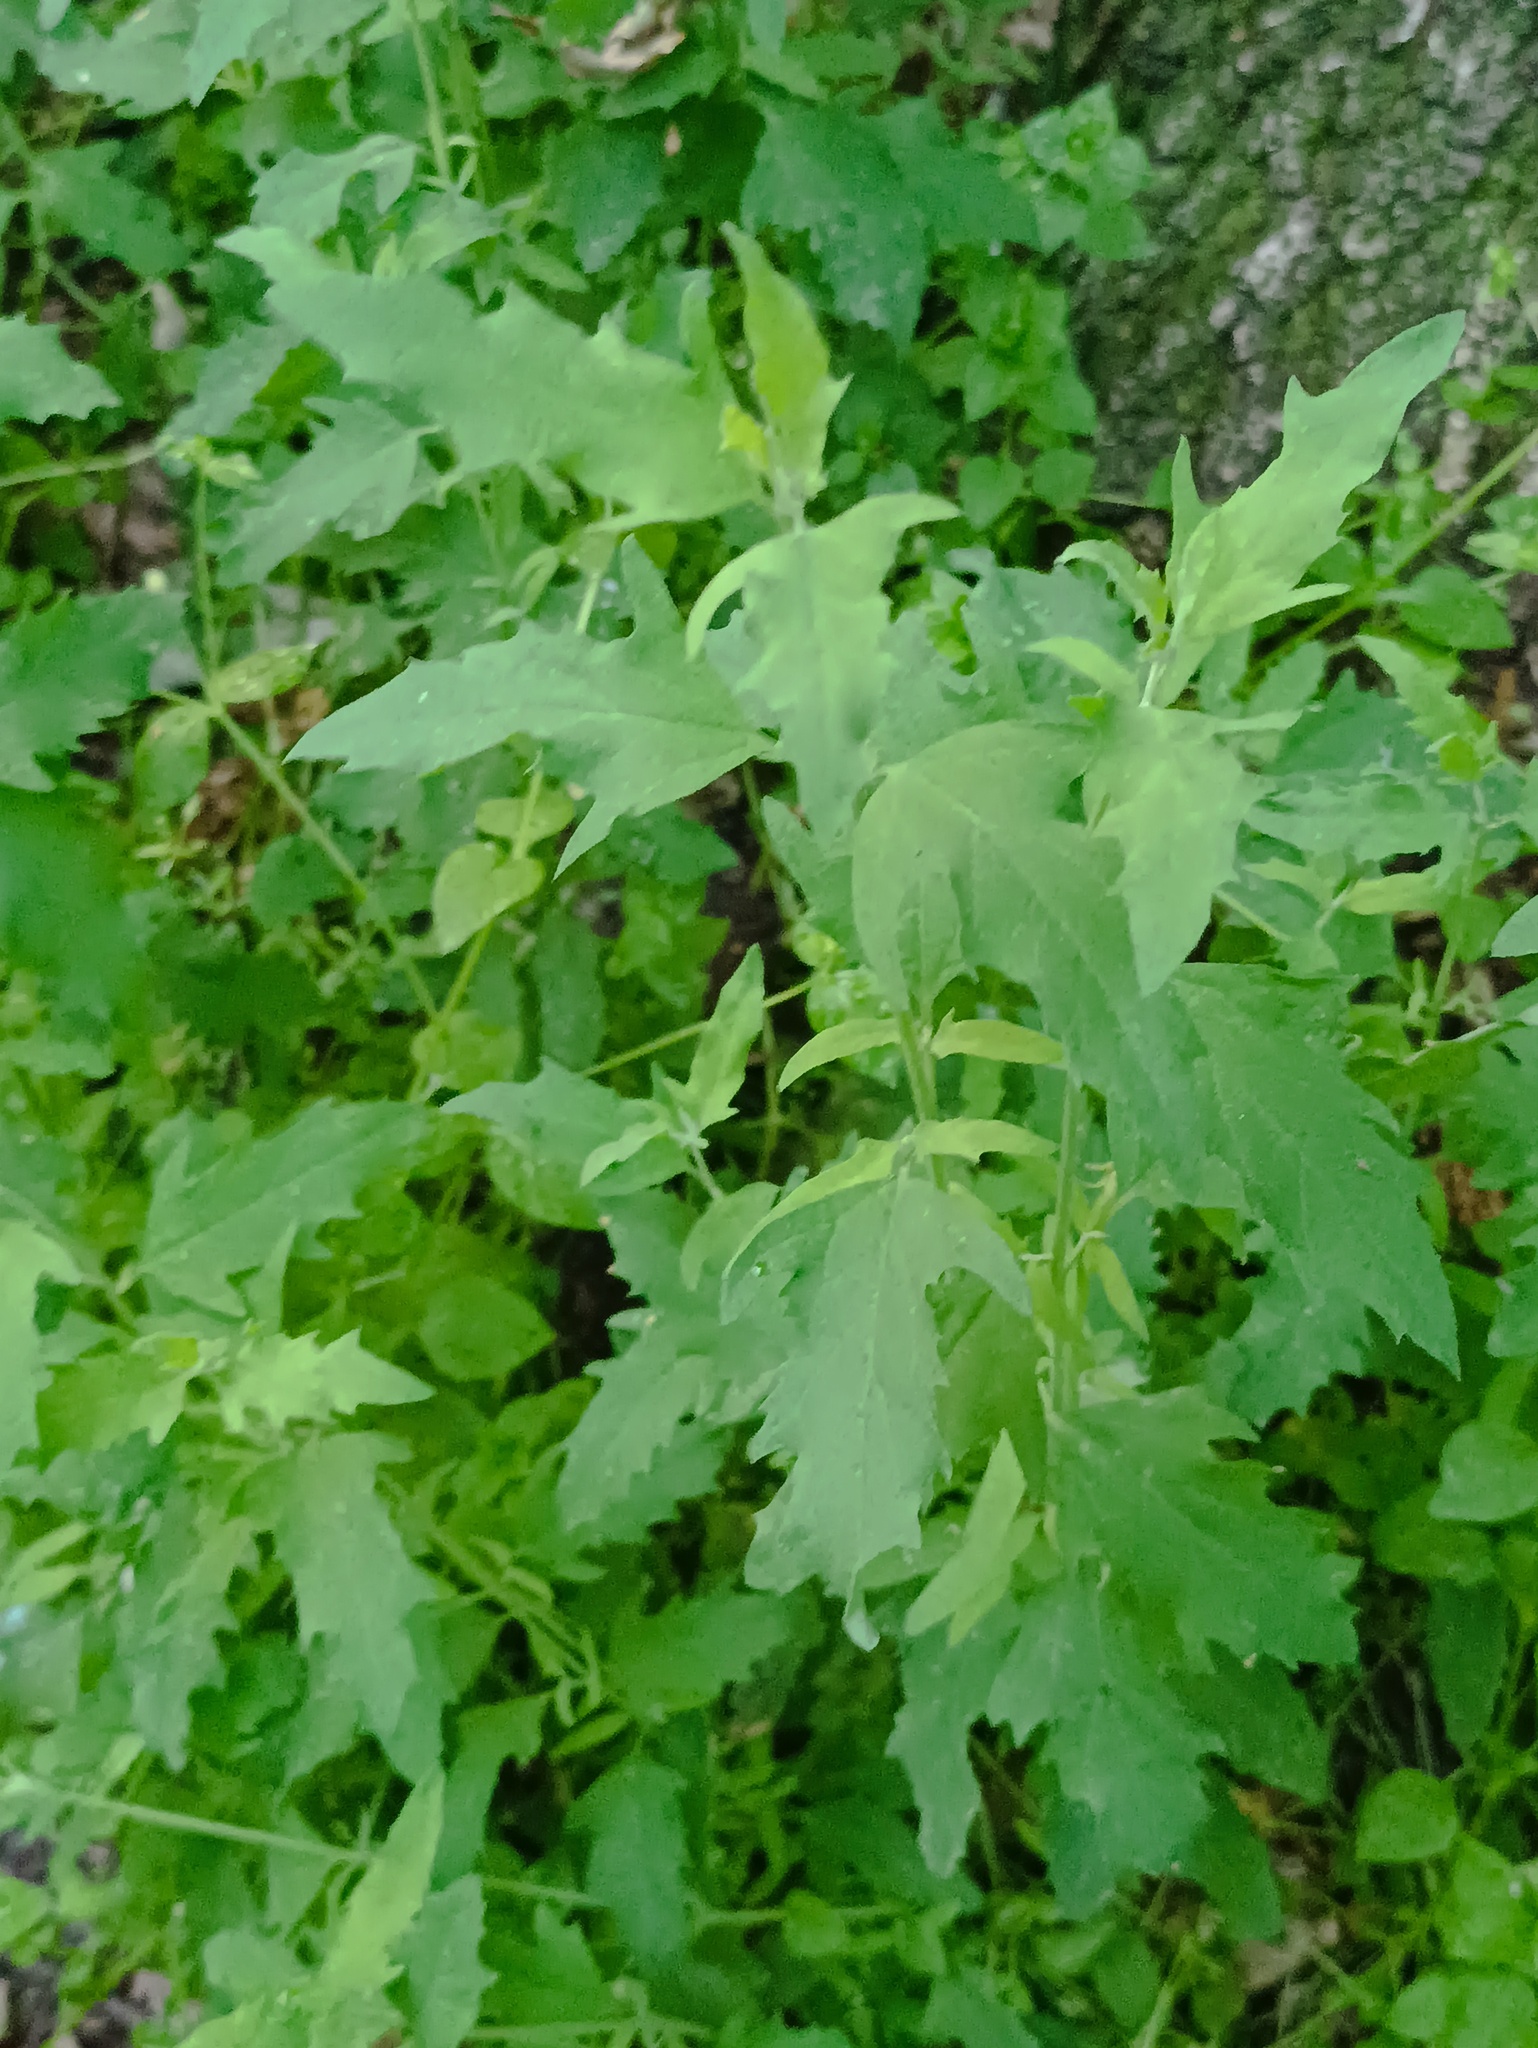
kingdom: Plantae
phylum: Tracheophyta
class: Magnoliopsida
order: Caryophyllales
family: Amaranthaceae
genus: Atriplex
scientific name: Atriplex patula
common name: Common orache
